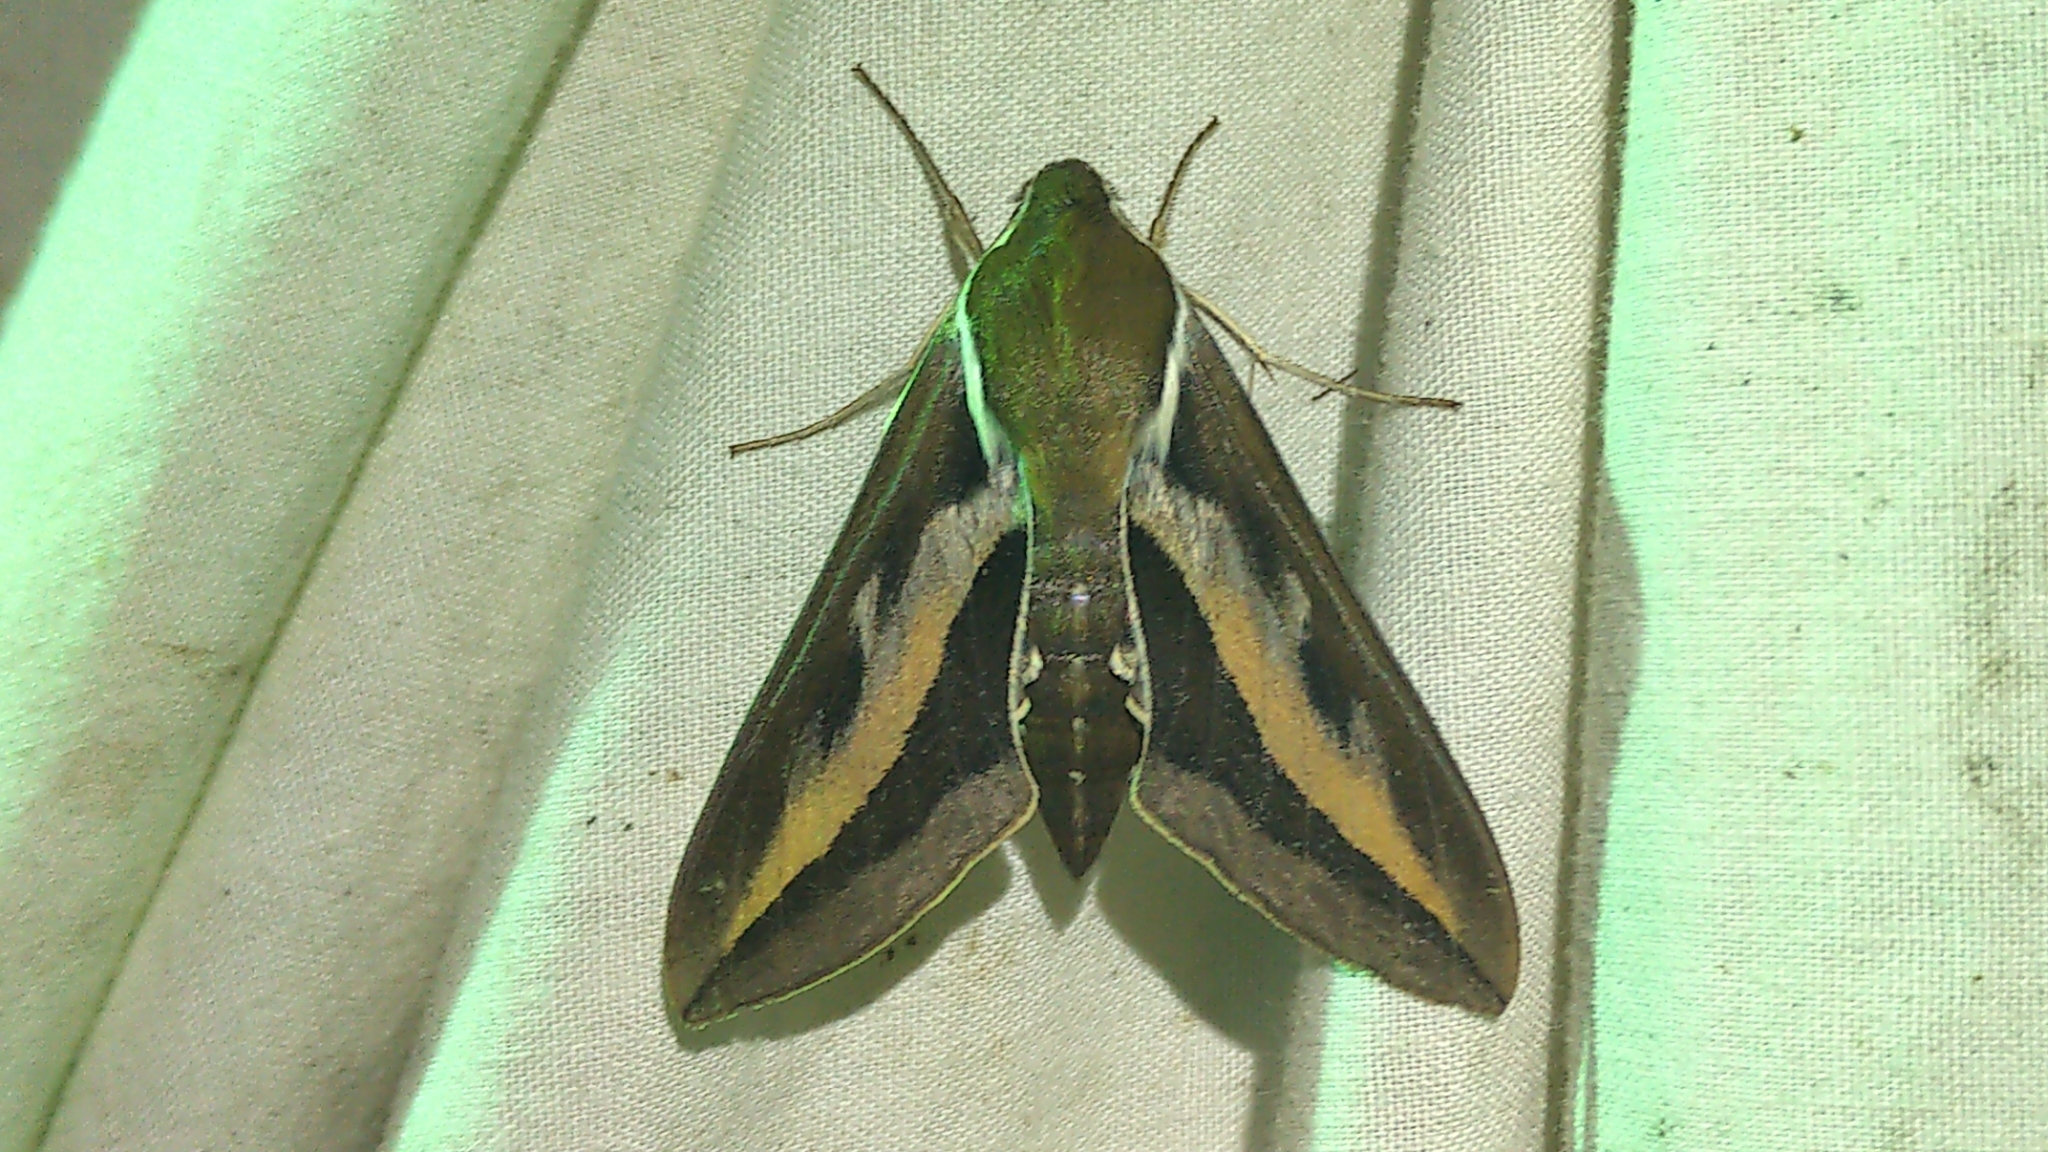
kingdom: Animalia
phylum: Arthropoda
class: Insecta
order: Lepidoptera
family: Sphingidae
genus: Hyles
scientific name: Hyles gallii
